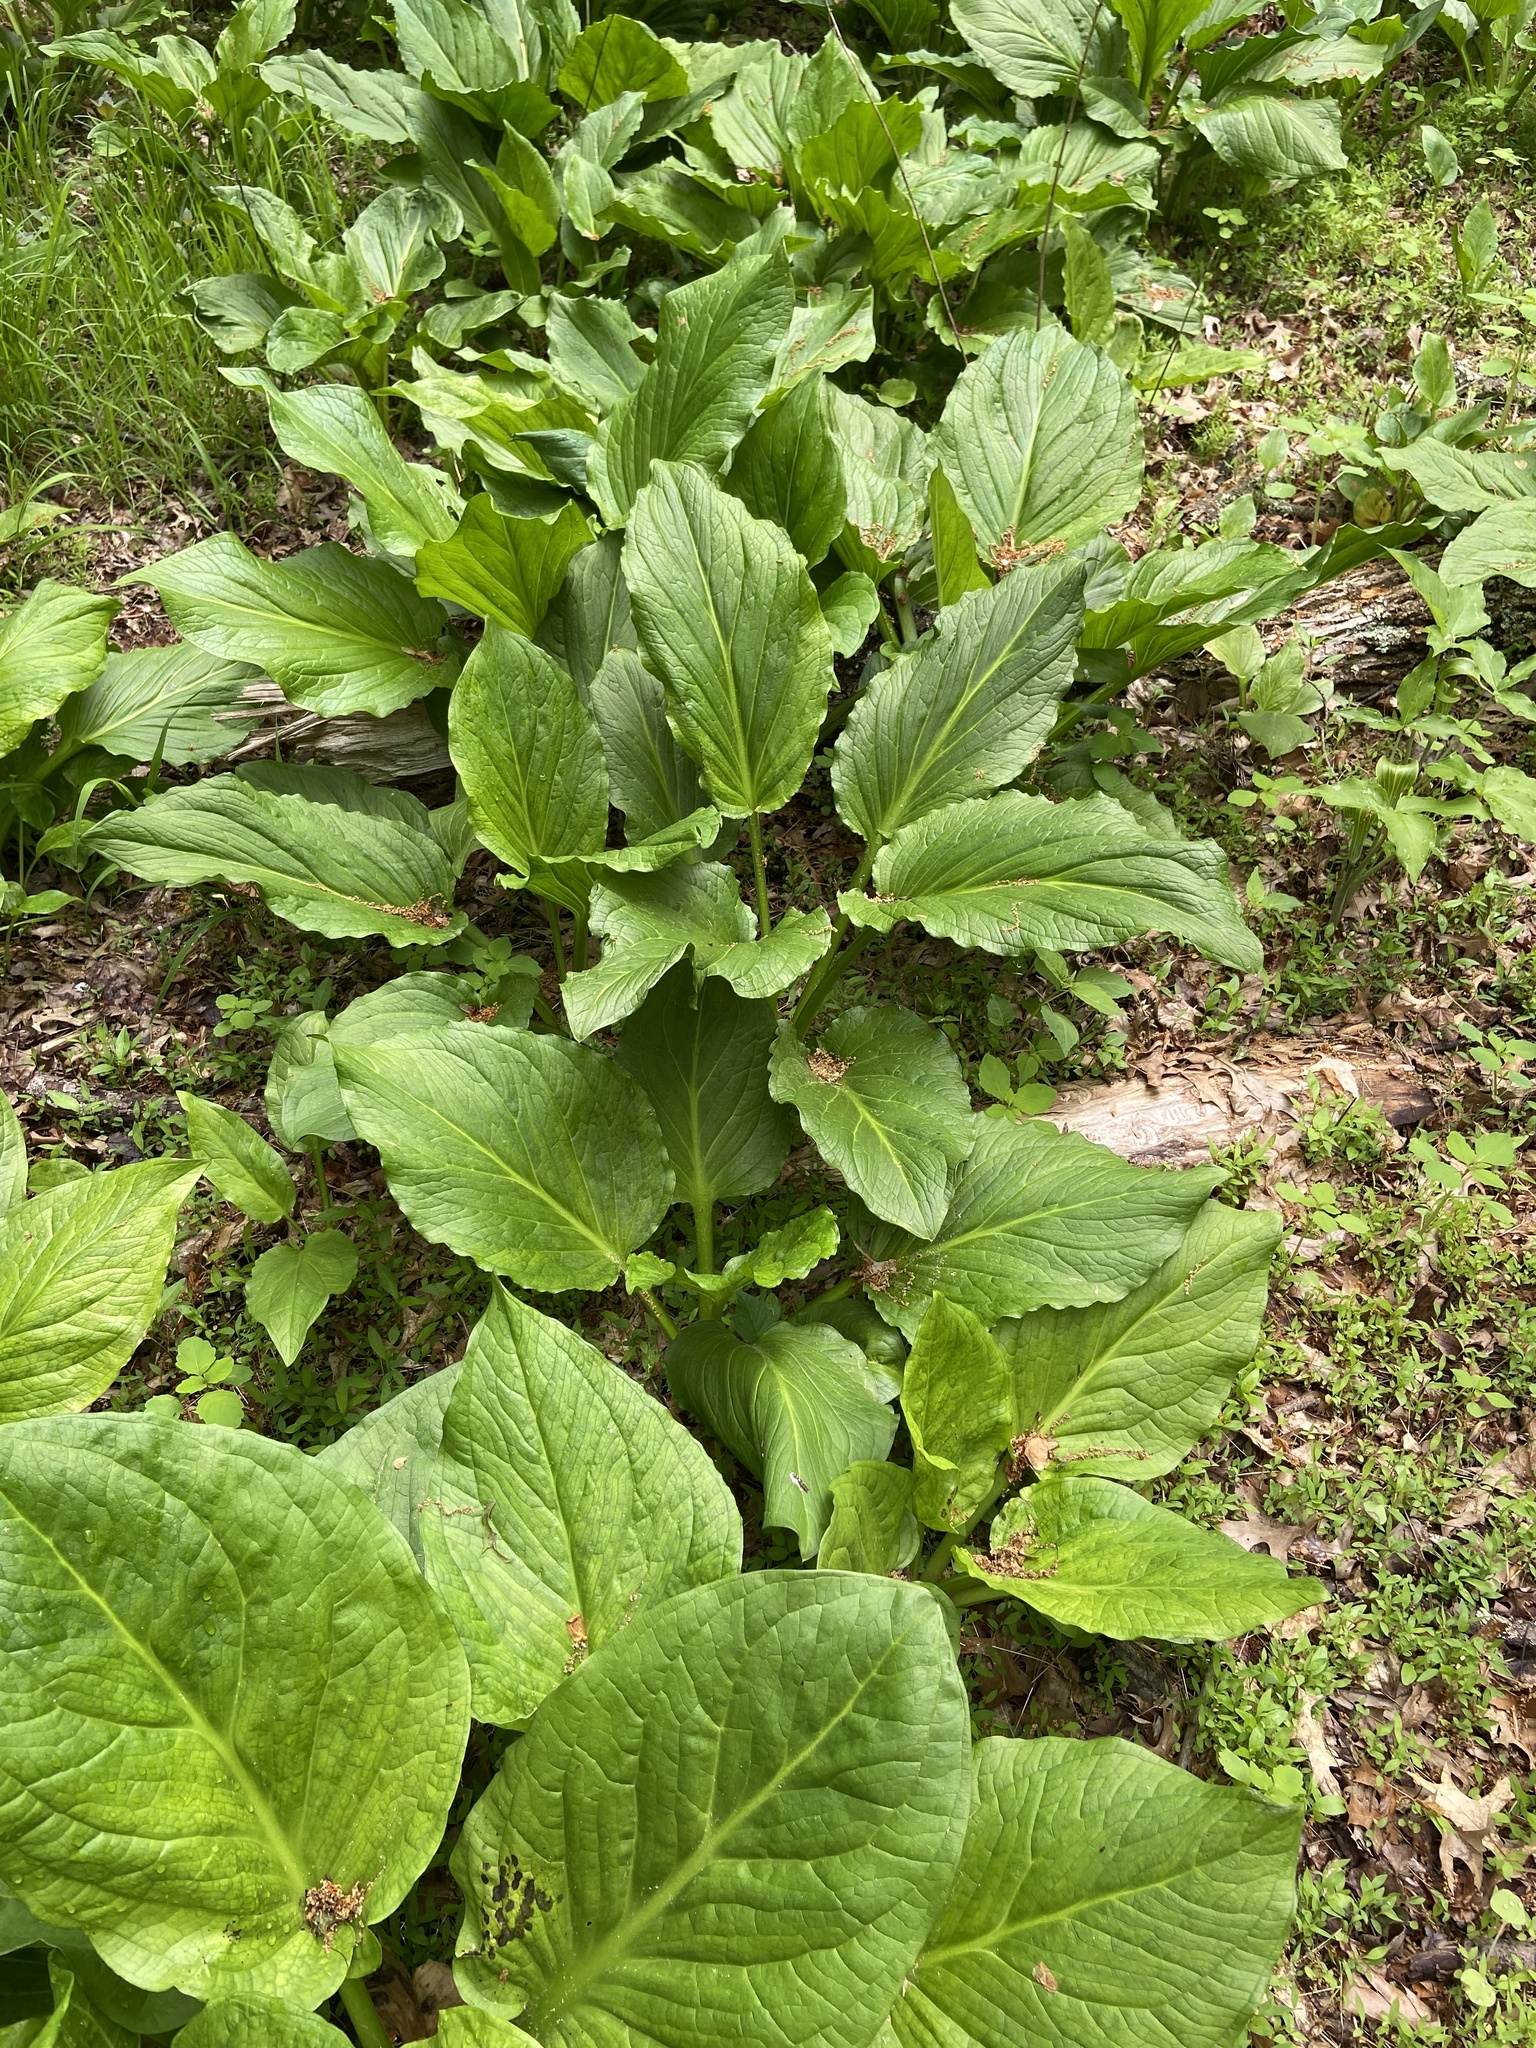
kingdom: Plantae
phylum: Tracheophyta
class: Liliopsida
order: Alismatales
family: Araceae
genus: Symplocarpus
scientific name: Symplocarpus foetidus
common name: Eastern skunk cabbage
